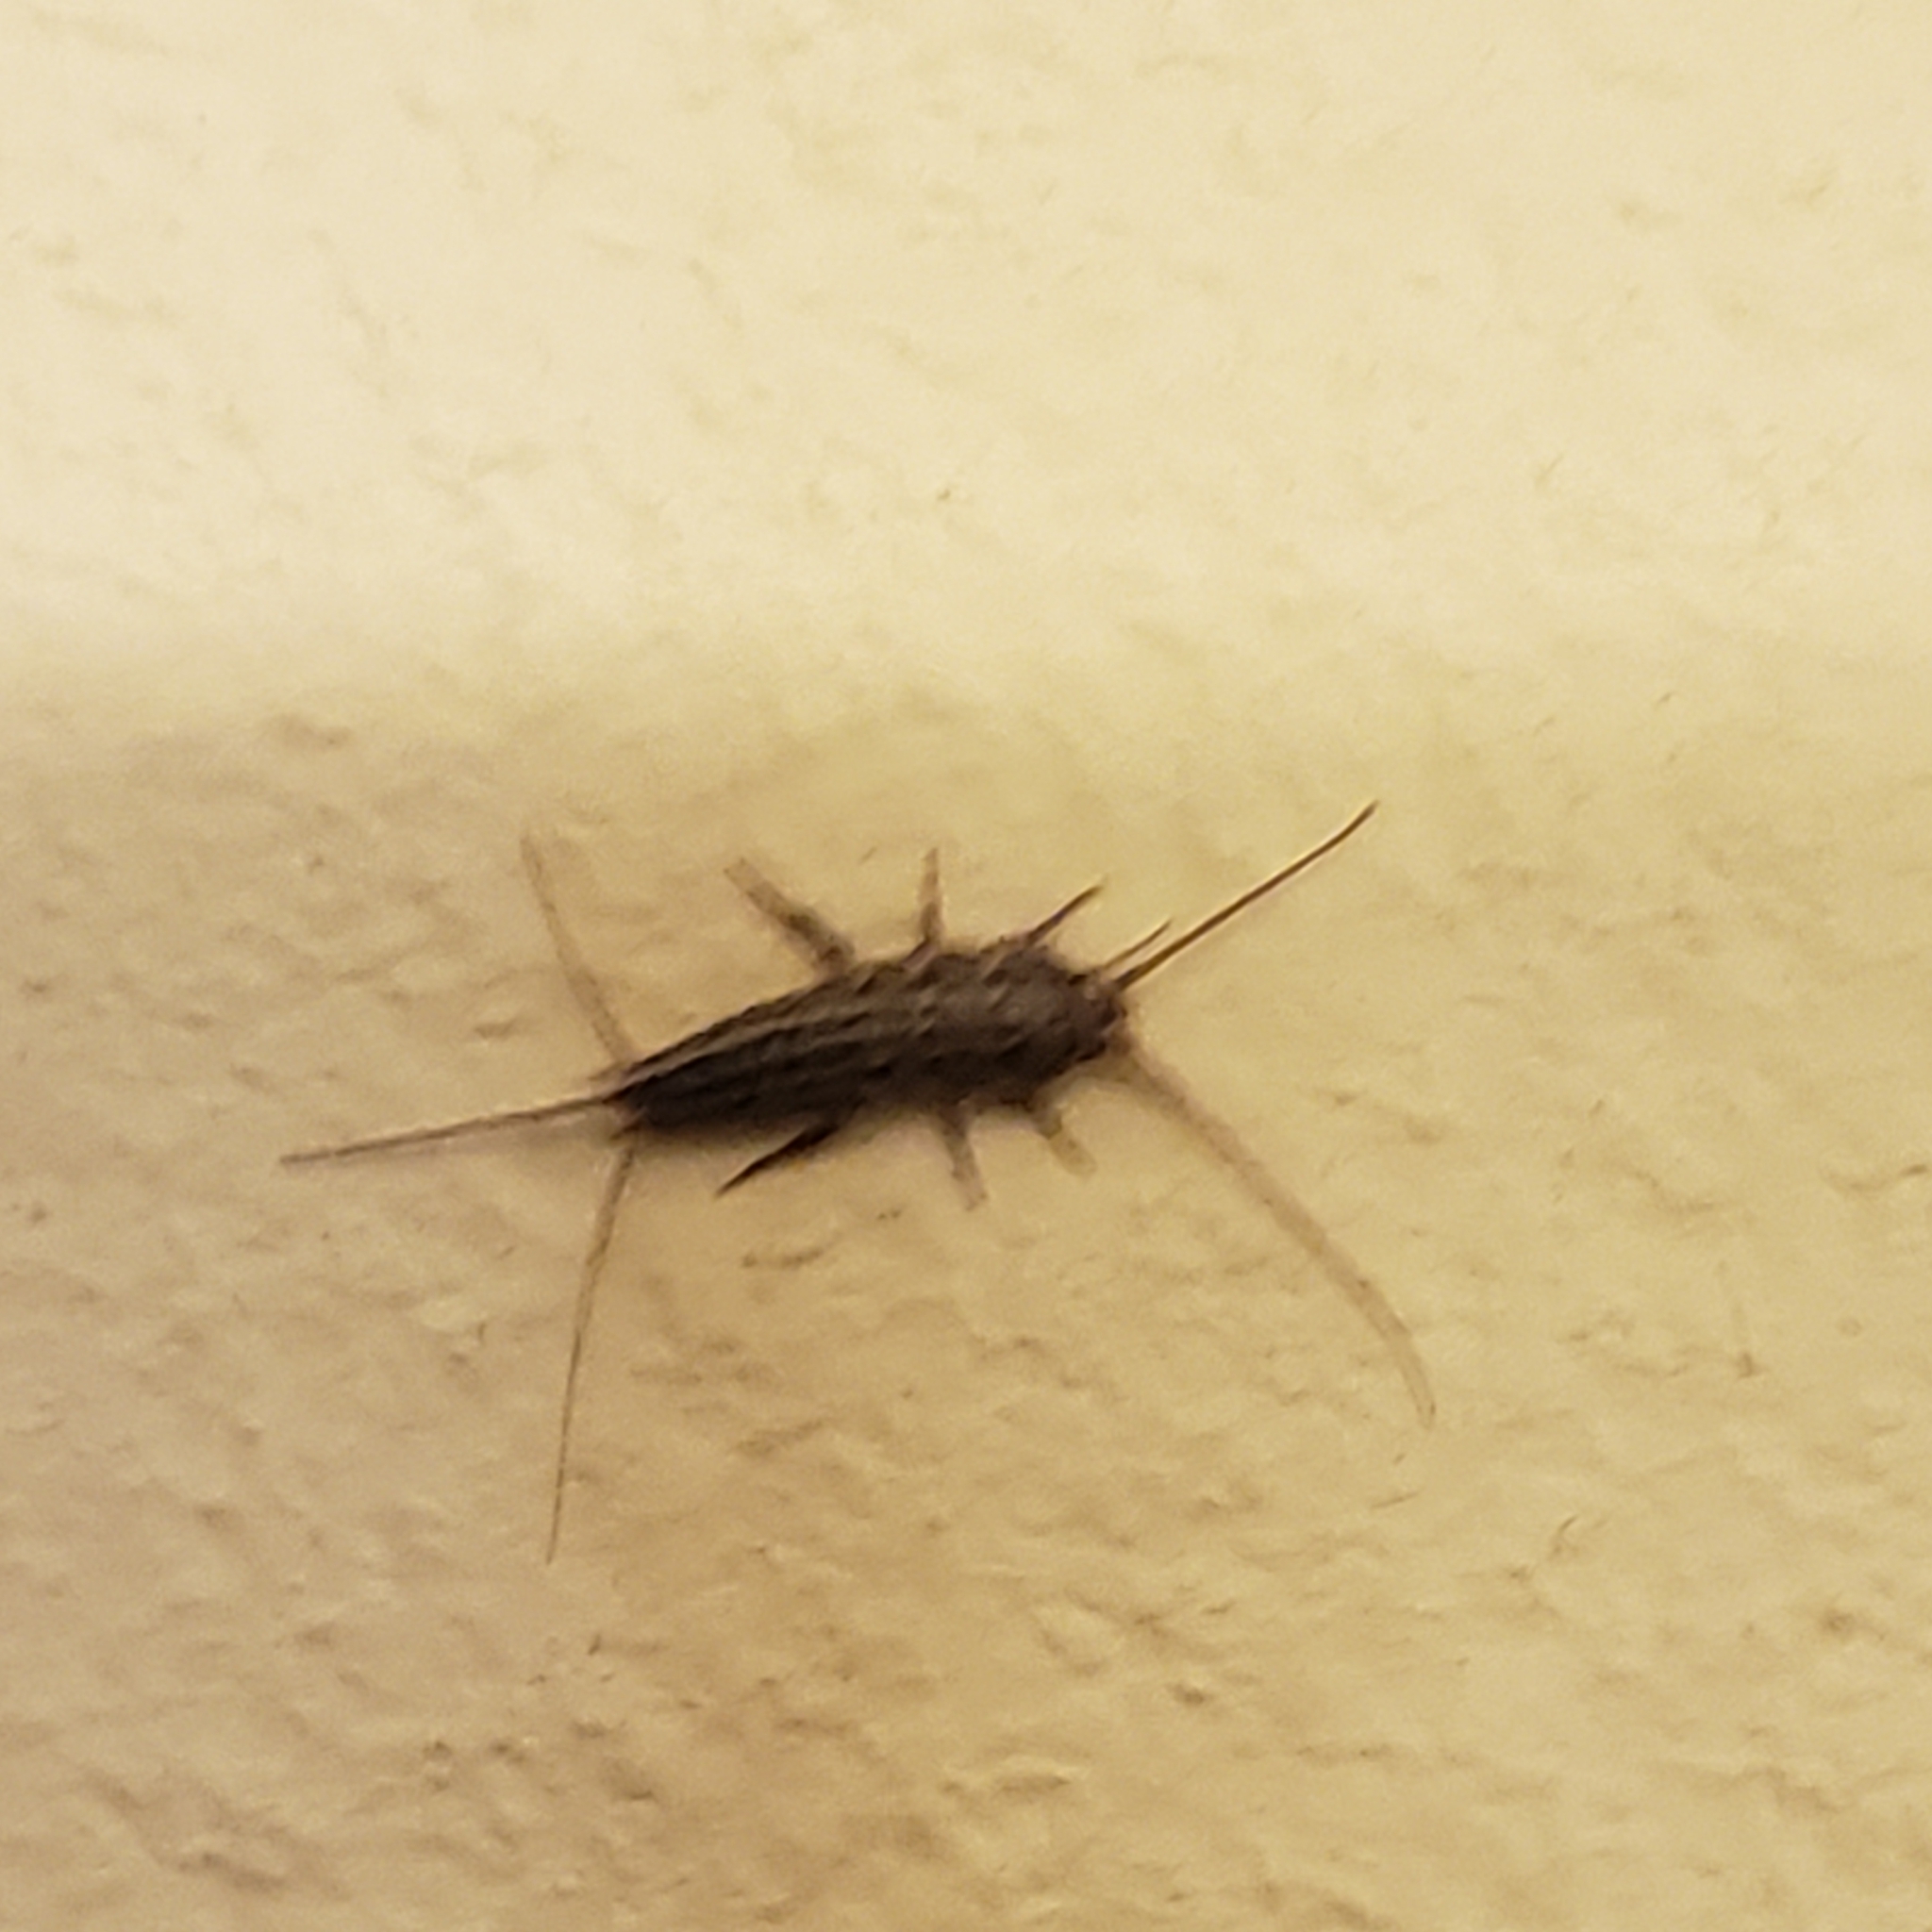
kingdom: Animalia
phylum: Arthropoda
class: Insecta
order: Zygentoma
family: Lepismatidae
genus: Ctenolepisma
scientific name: Ctenolepisma lineata
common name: Four-lined silverfish
